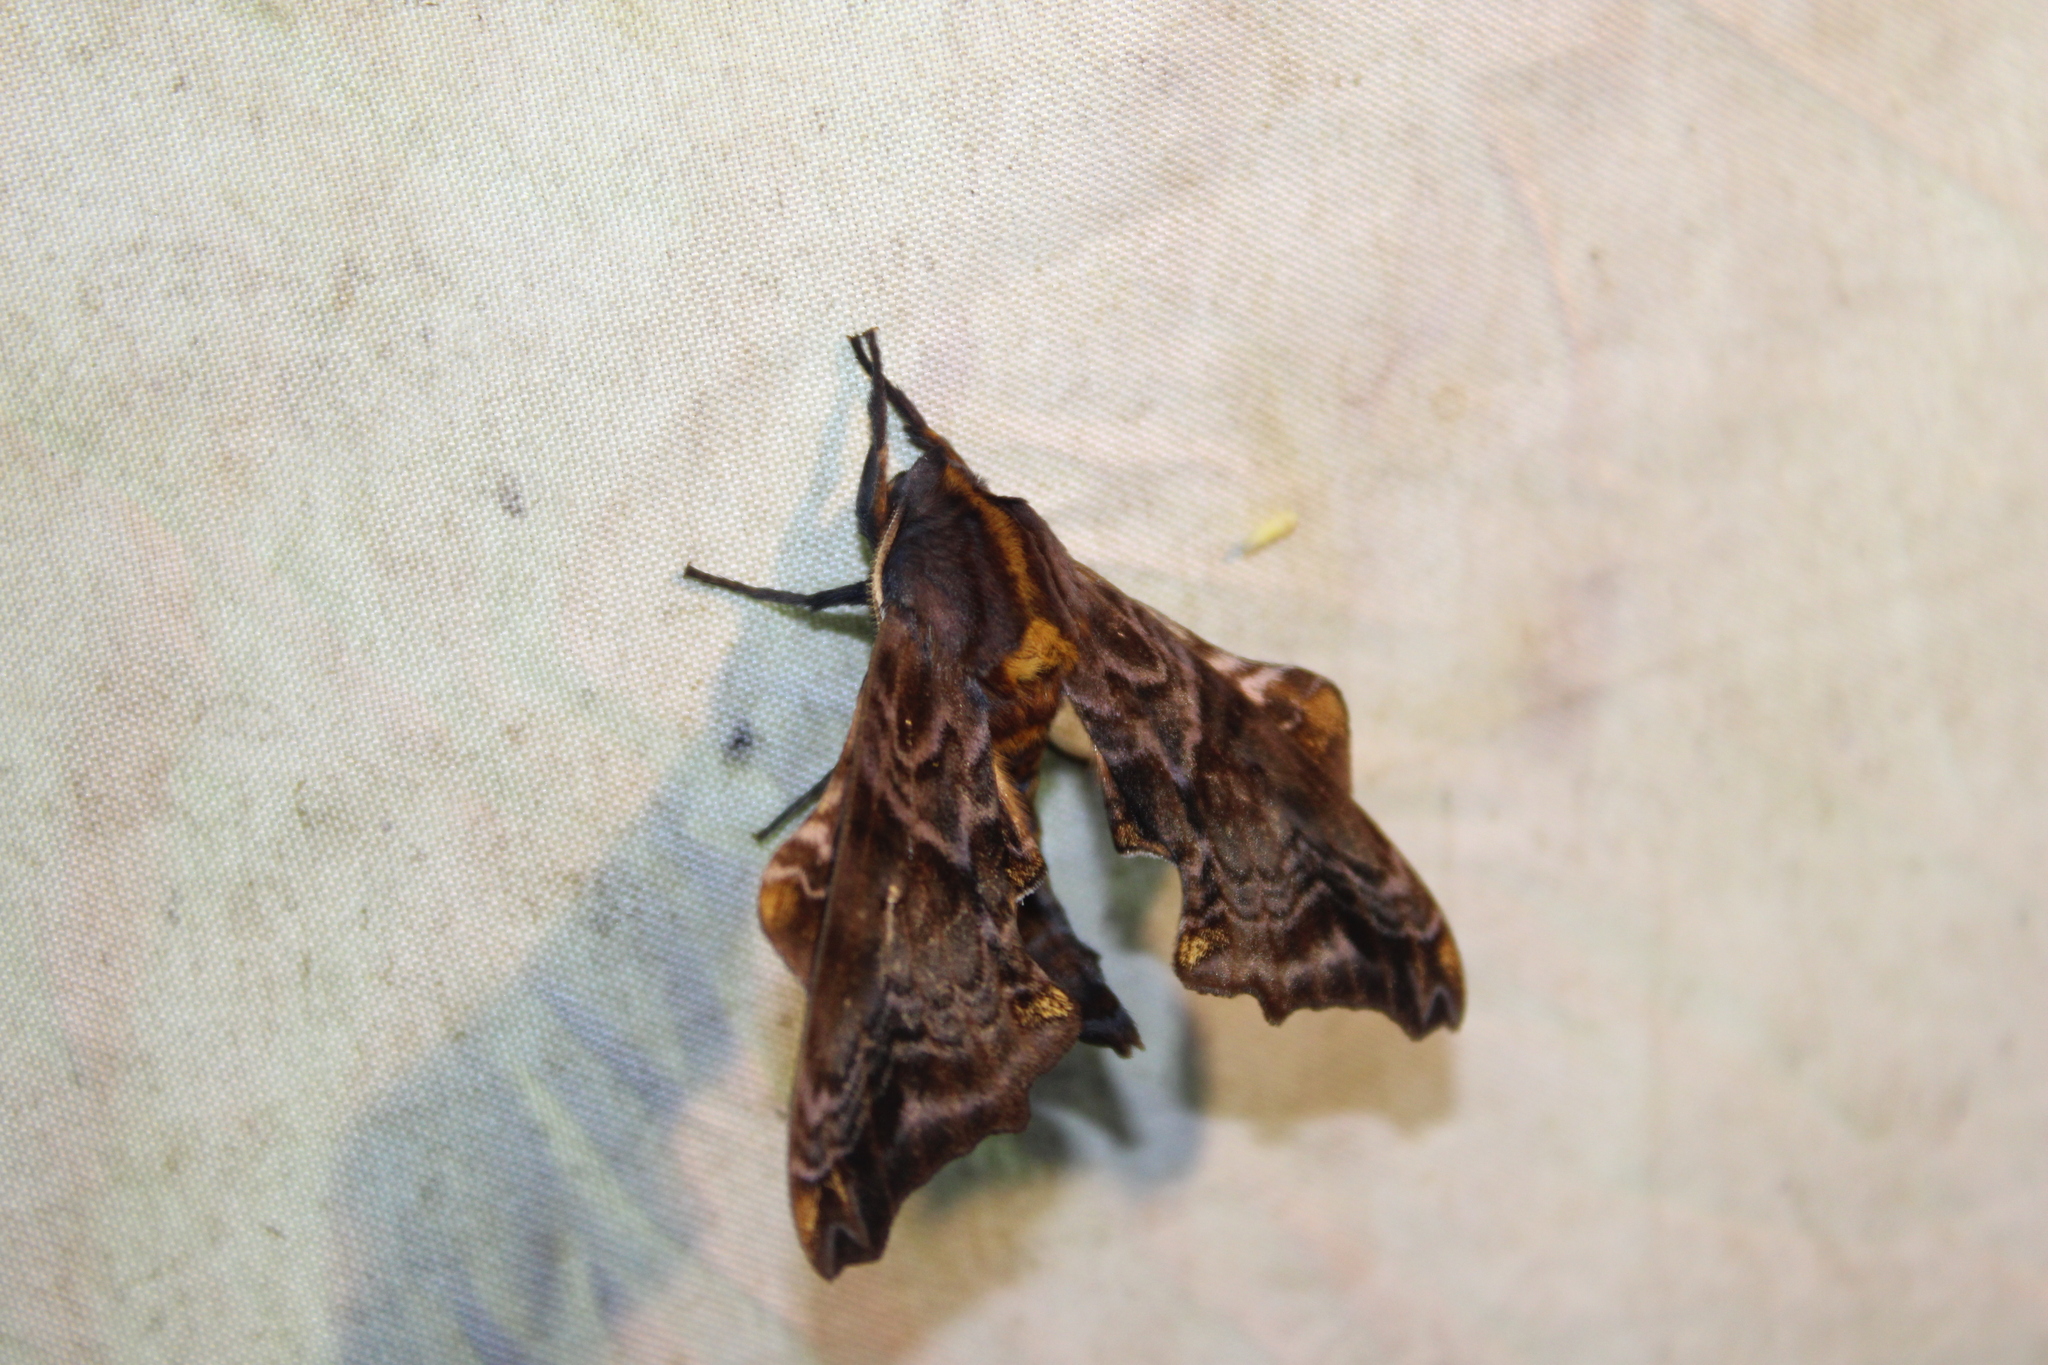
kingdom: Animalia
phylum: Arthropoda
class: Insecta
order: Lepidoptera
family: Sphingidae
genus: Paonias
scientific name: Paonias myops
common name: Small-eyed sphinx
